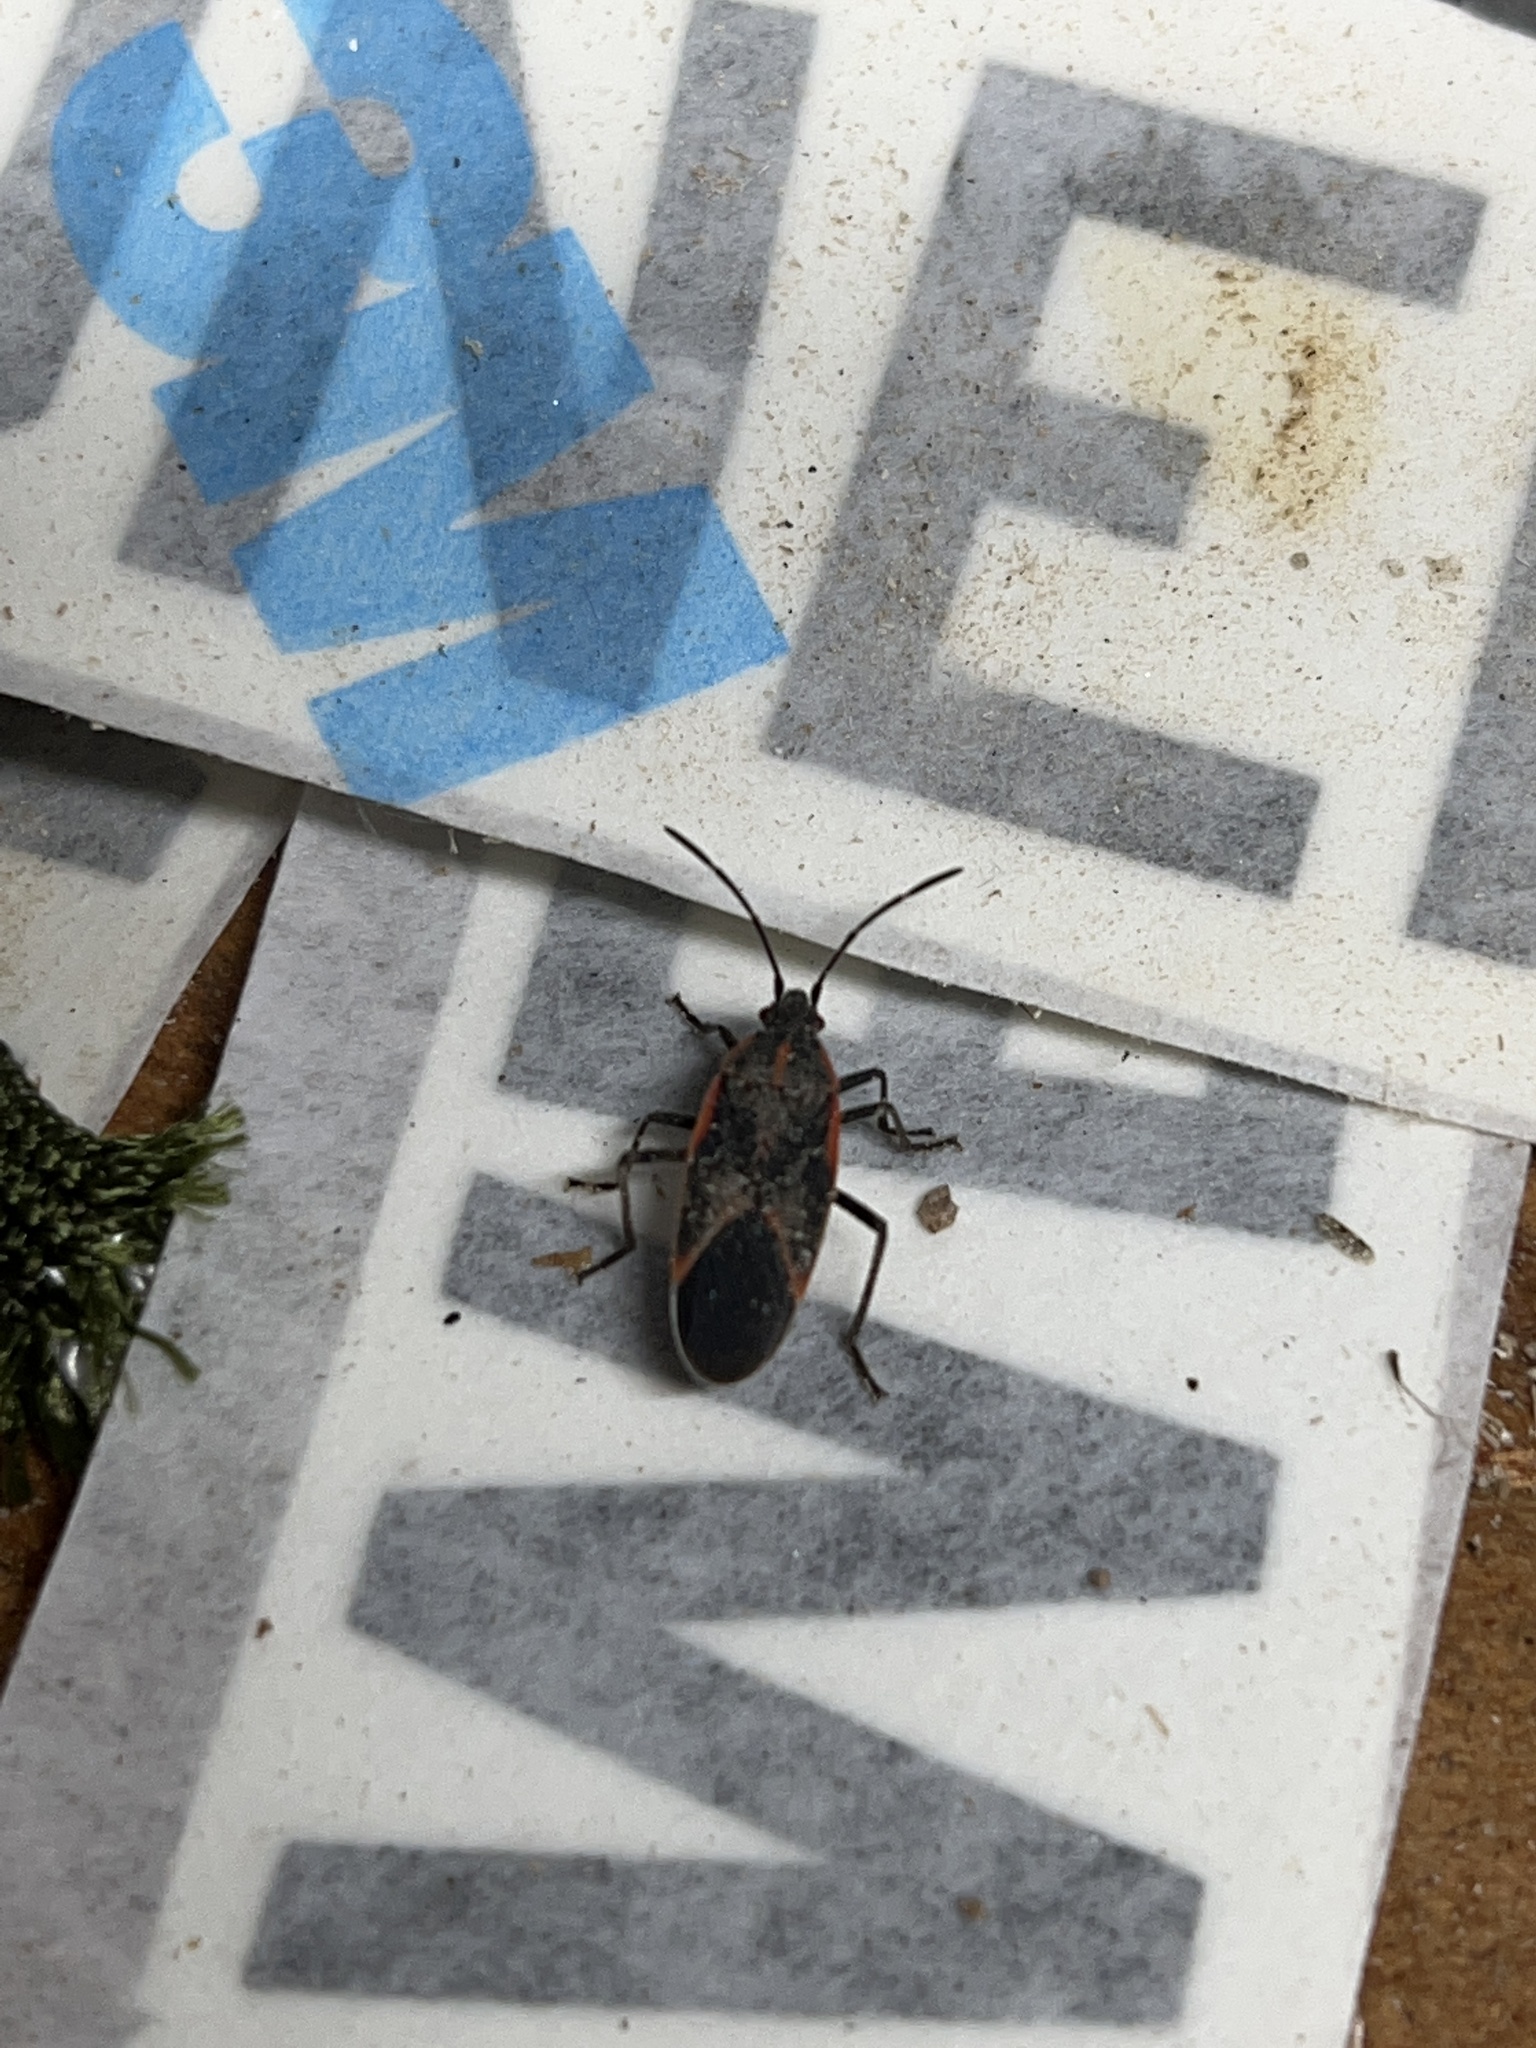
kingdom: Animalia
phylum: Arthropoda
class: Insecta
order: Hemiptera
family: Rhopalidae
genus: Boisea
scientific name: Boisea trivittata
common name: Boxelder bug
